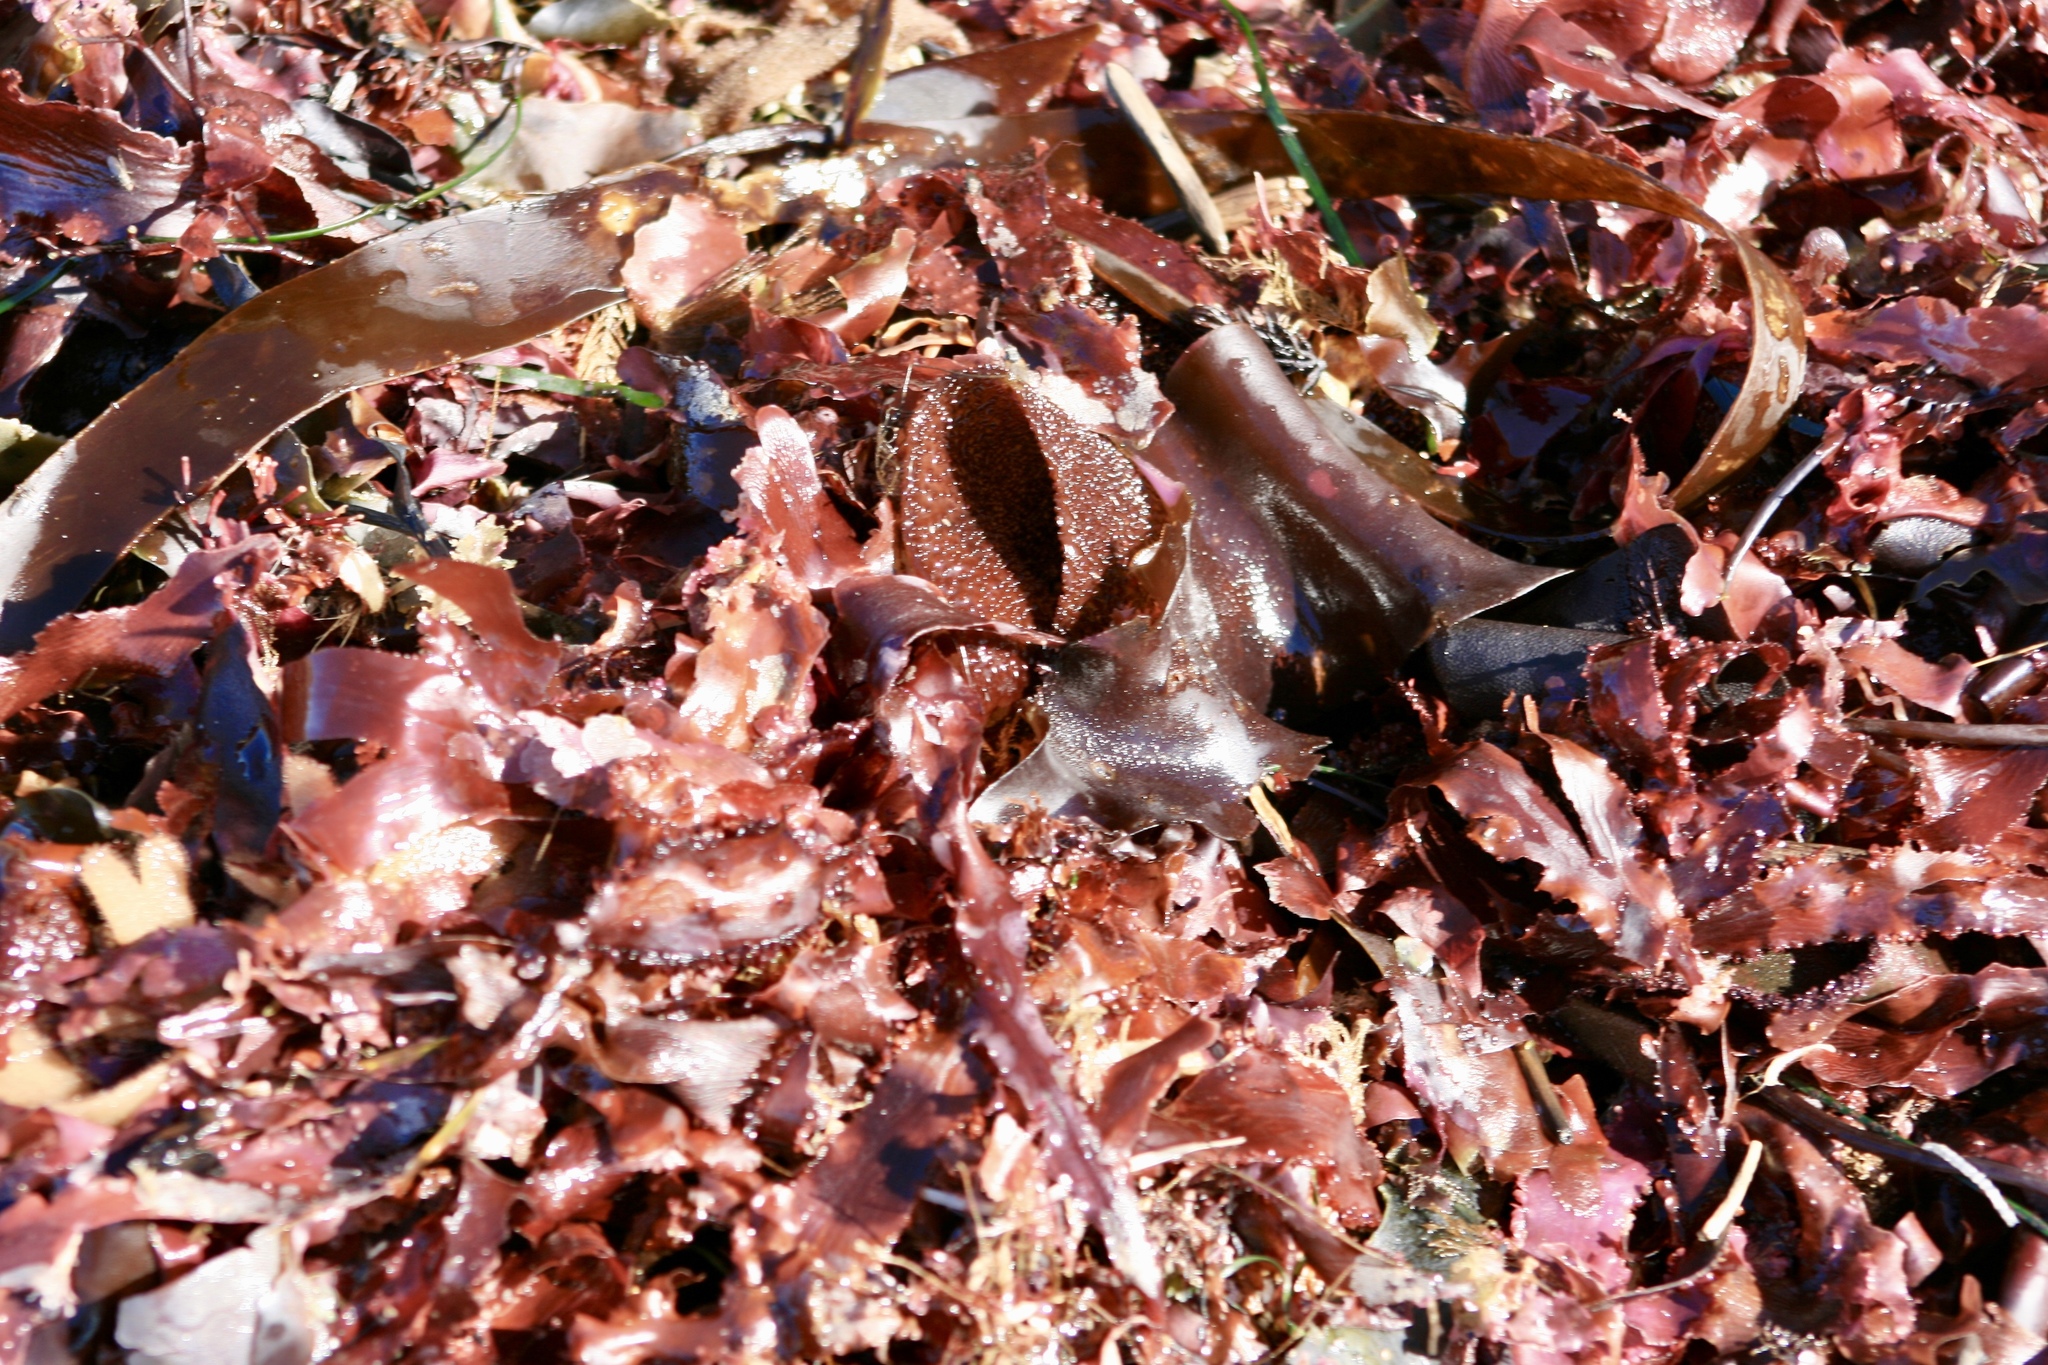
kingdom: Plantae
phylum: Rhodophyta
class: Florideophyceae
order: Ceramiales
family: Delesseriaceae
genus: Cryptopleura
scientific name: Cryptopleura ruprechtiana
